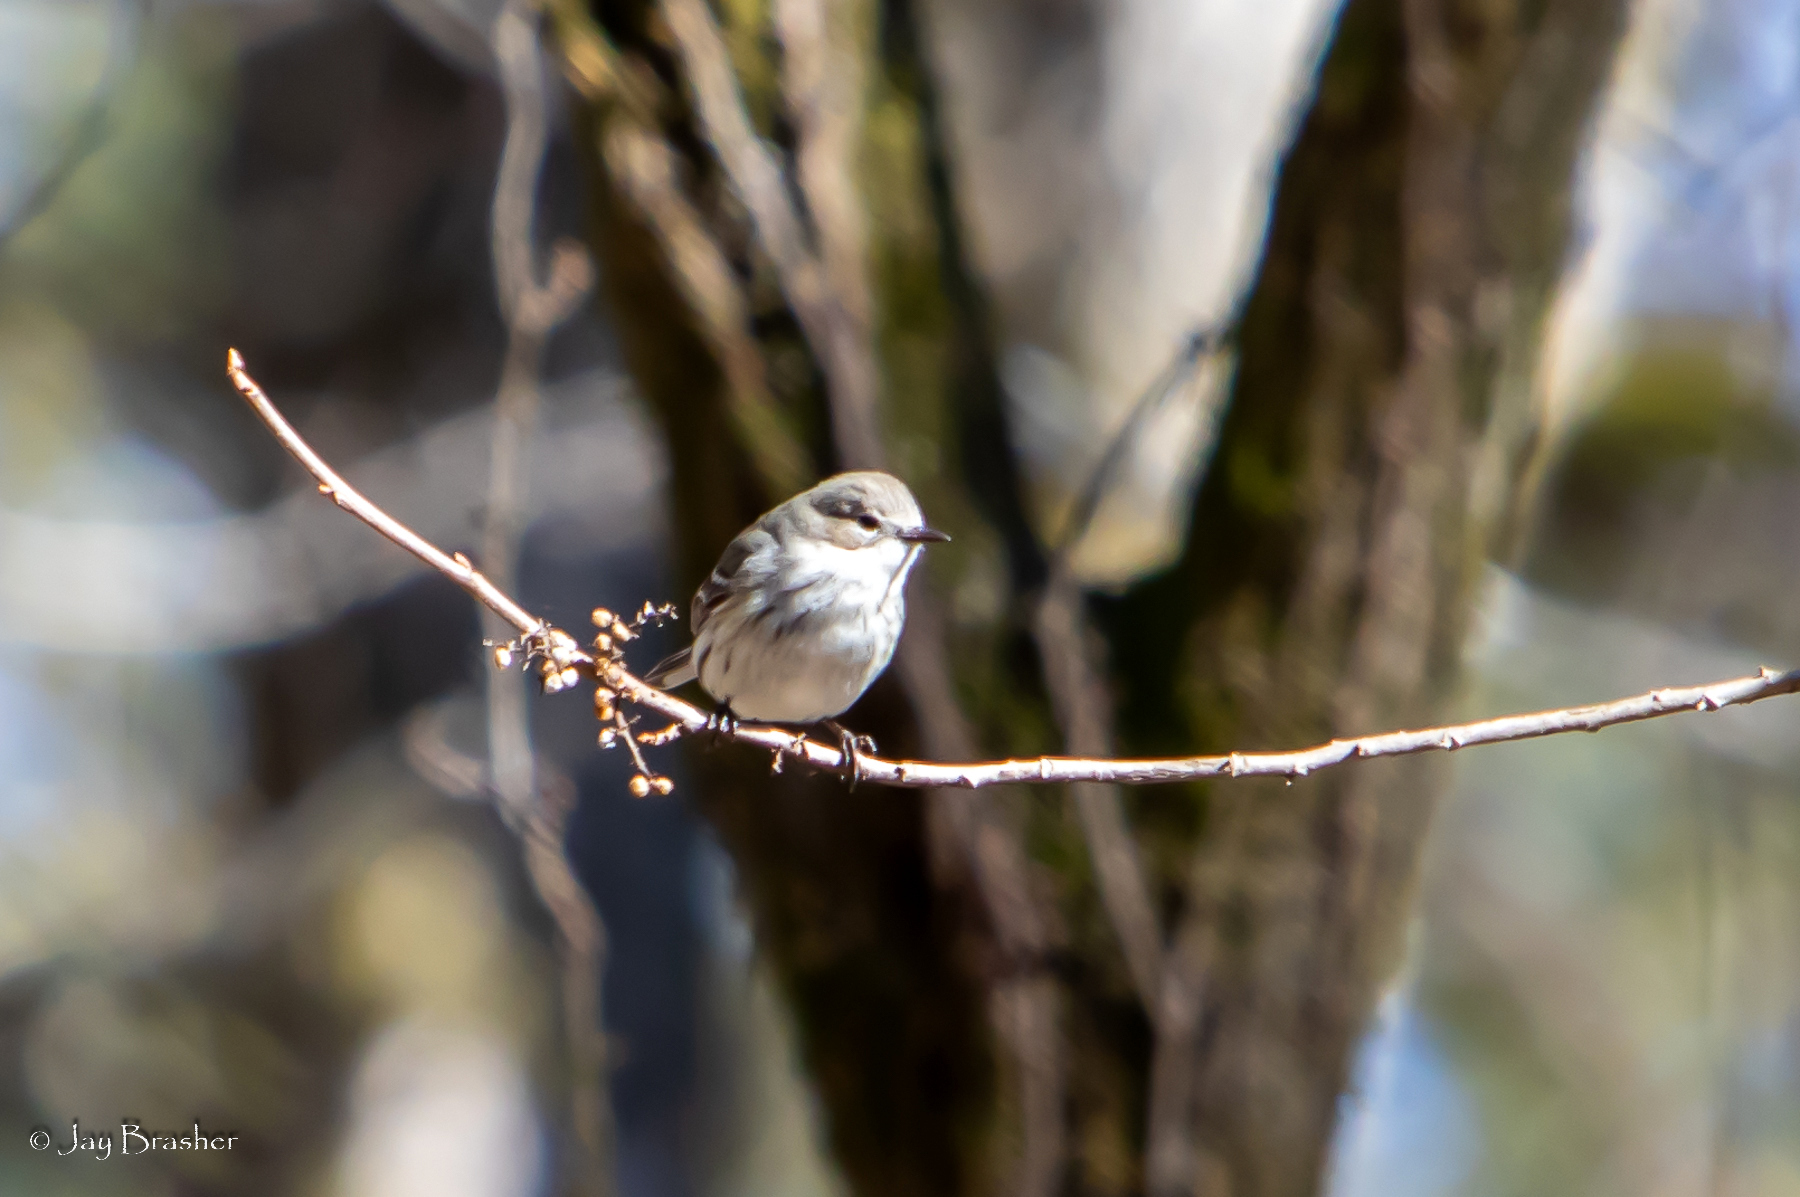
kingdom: Animalia
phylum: Chordata
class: Aves
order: Passeriformes
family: Parulidae
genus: Setophaga
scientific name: Setophaga coronata
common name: Myrtle warbler
